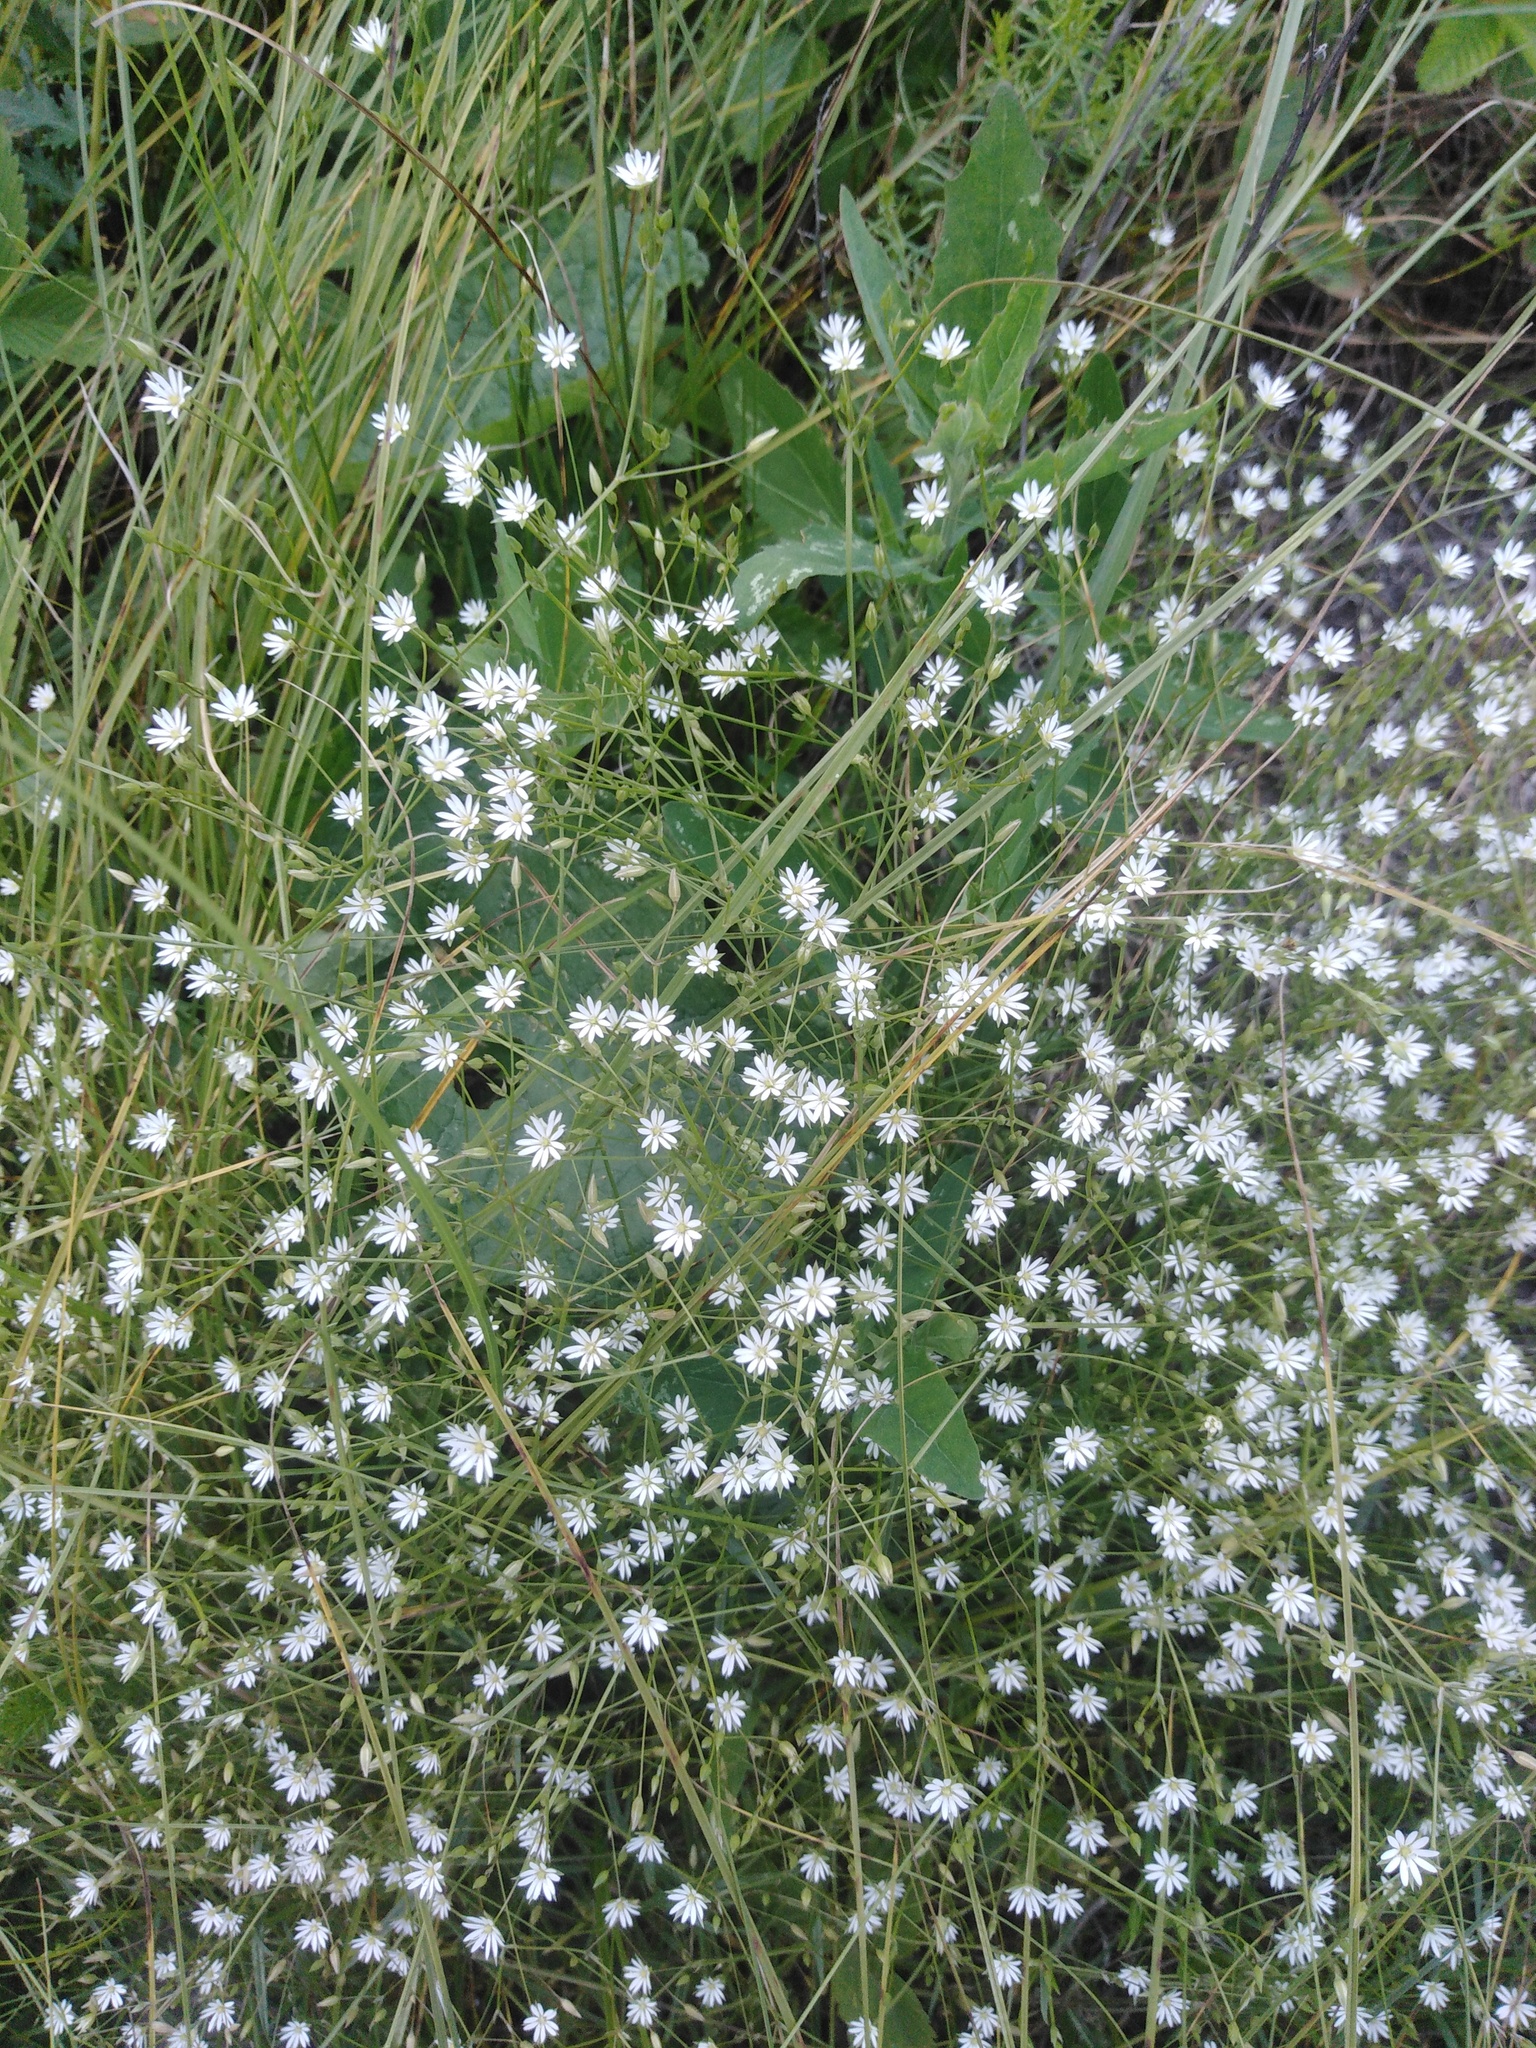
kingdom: Plantae
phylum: Tracheophyta
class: Magnoliopsida
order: Caryophyllales
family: Caryophyllaceae
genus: Stellaria
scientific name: Stellaria graminea
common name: Grass-like starwort
